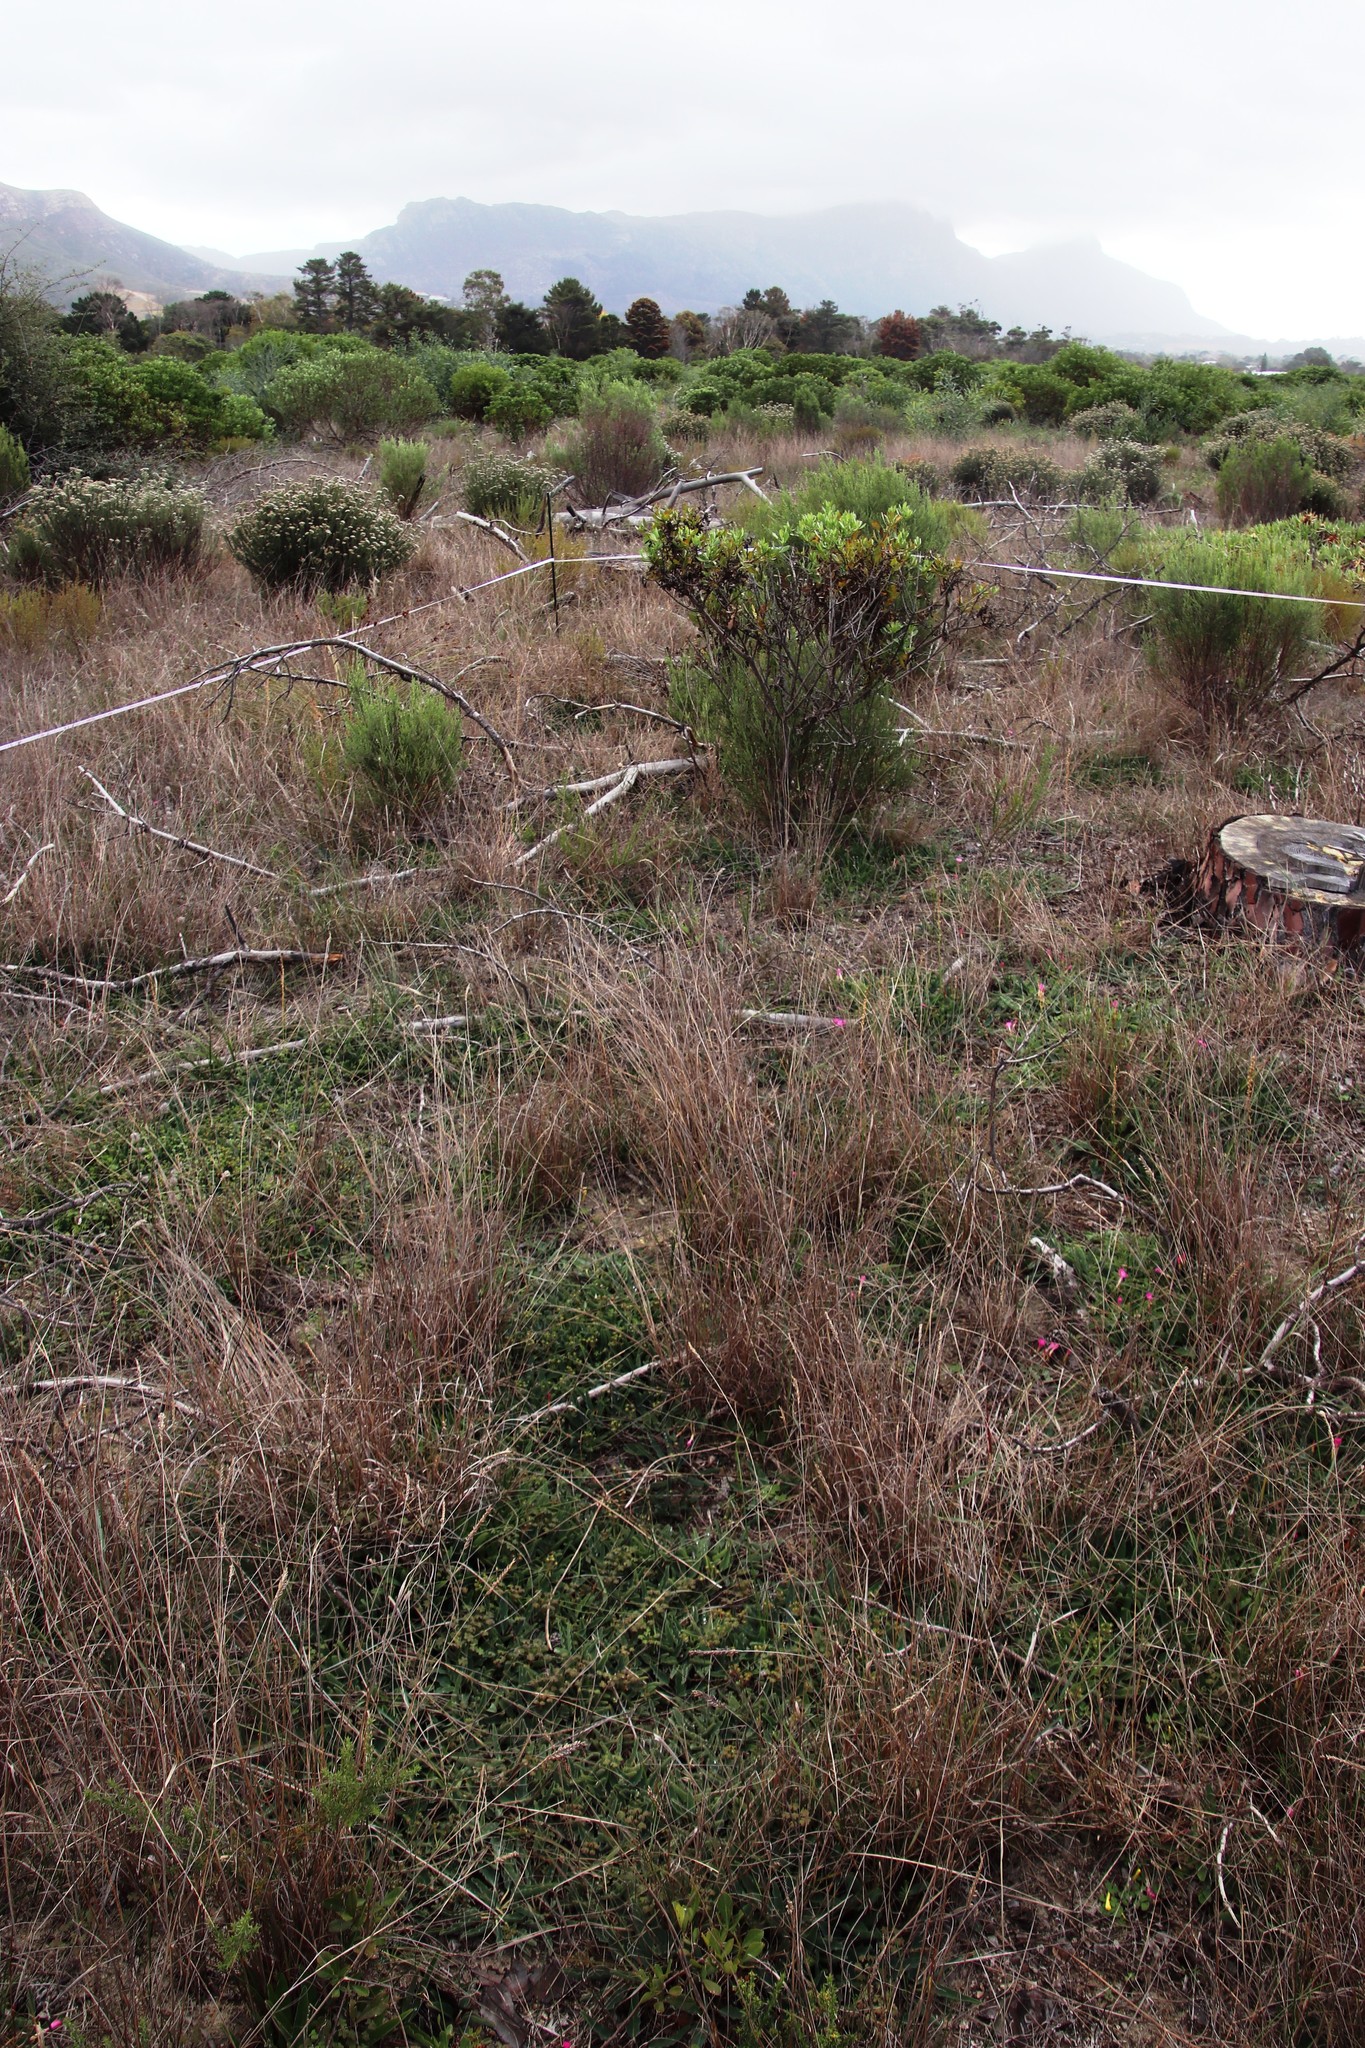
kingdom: Plantae
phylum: Tracheophyta
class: Magnoliopsida
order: Malpighiales
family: Euphorbiaceae
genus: Euphorbia
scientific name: Euphorbia tuberosa
